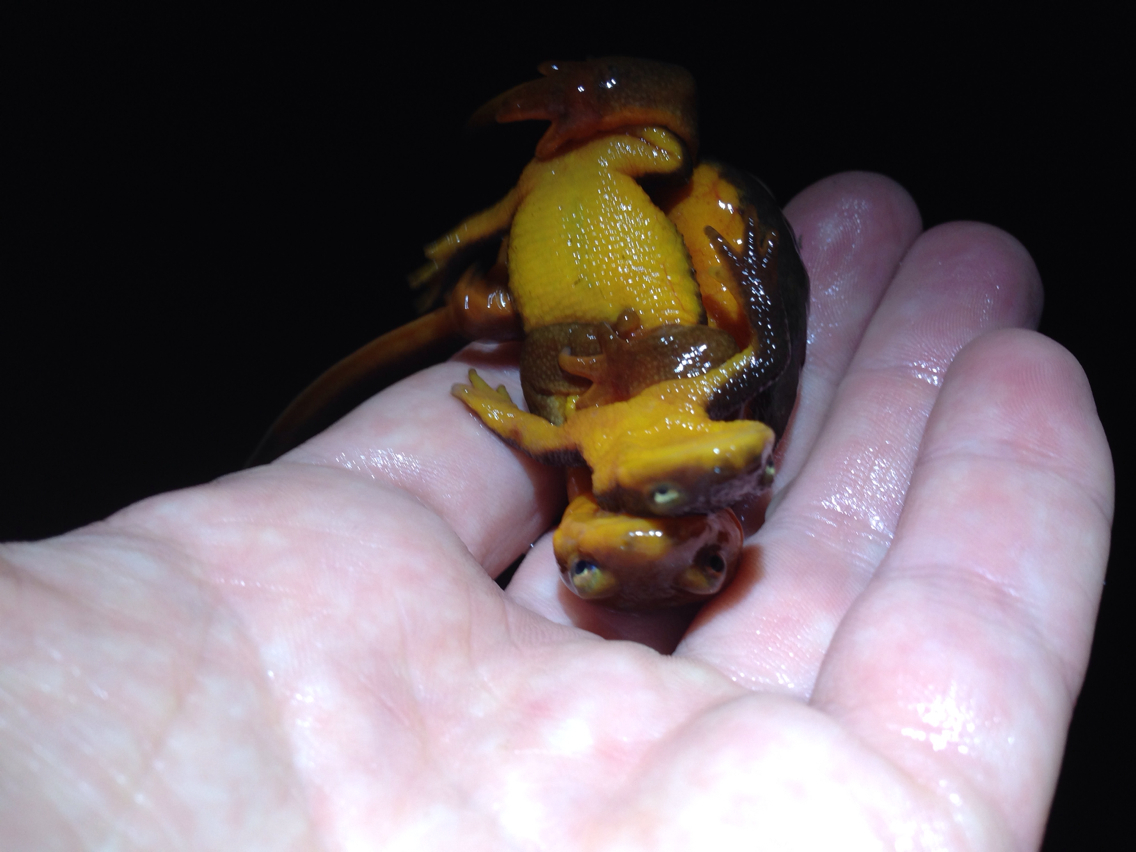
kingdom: Animalia
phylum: Chordata
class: Amphibia
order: Caudata
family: Salamandridae
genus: Taricha
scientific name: Taricha granulosa
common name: Roughskin newt
